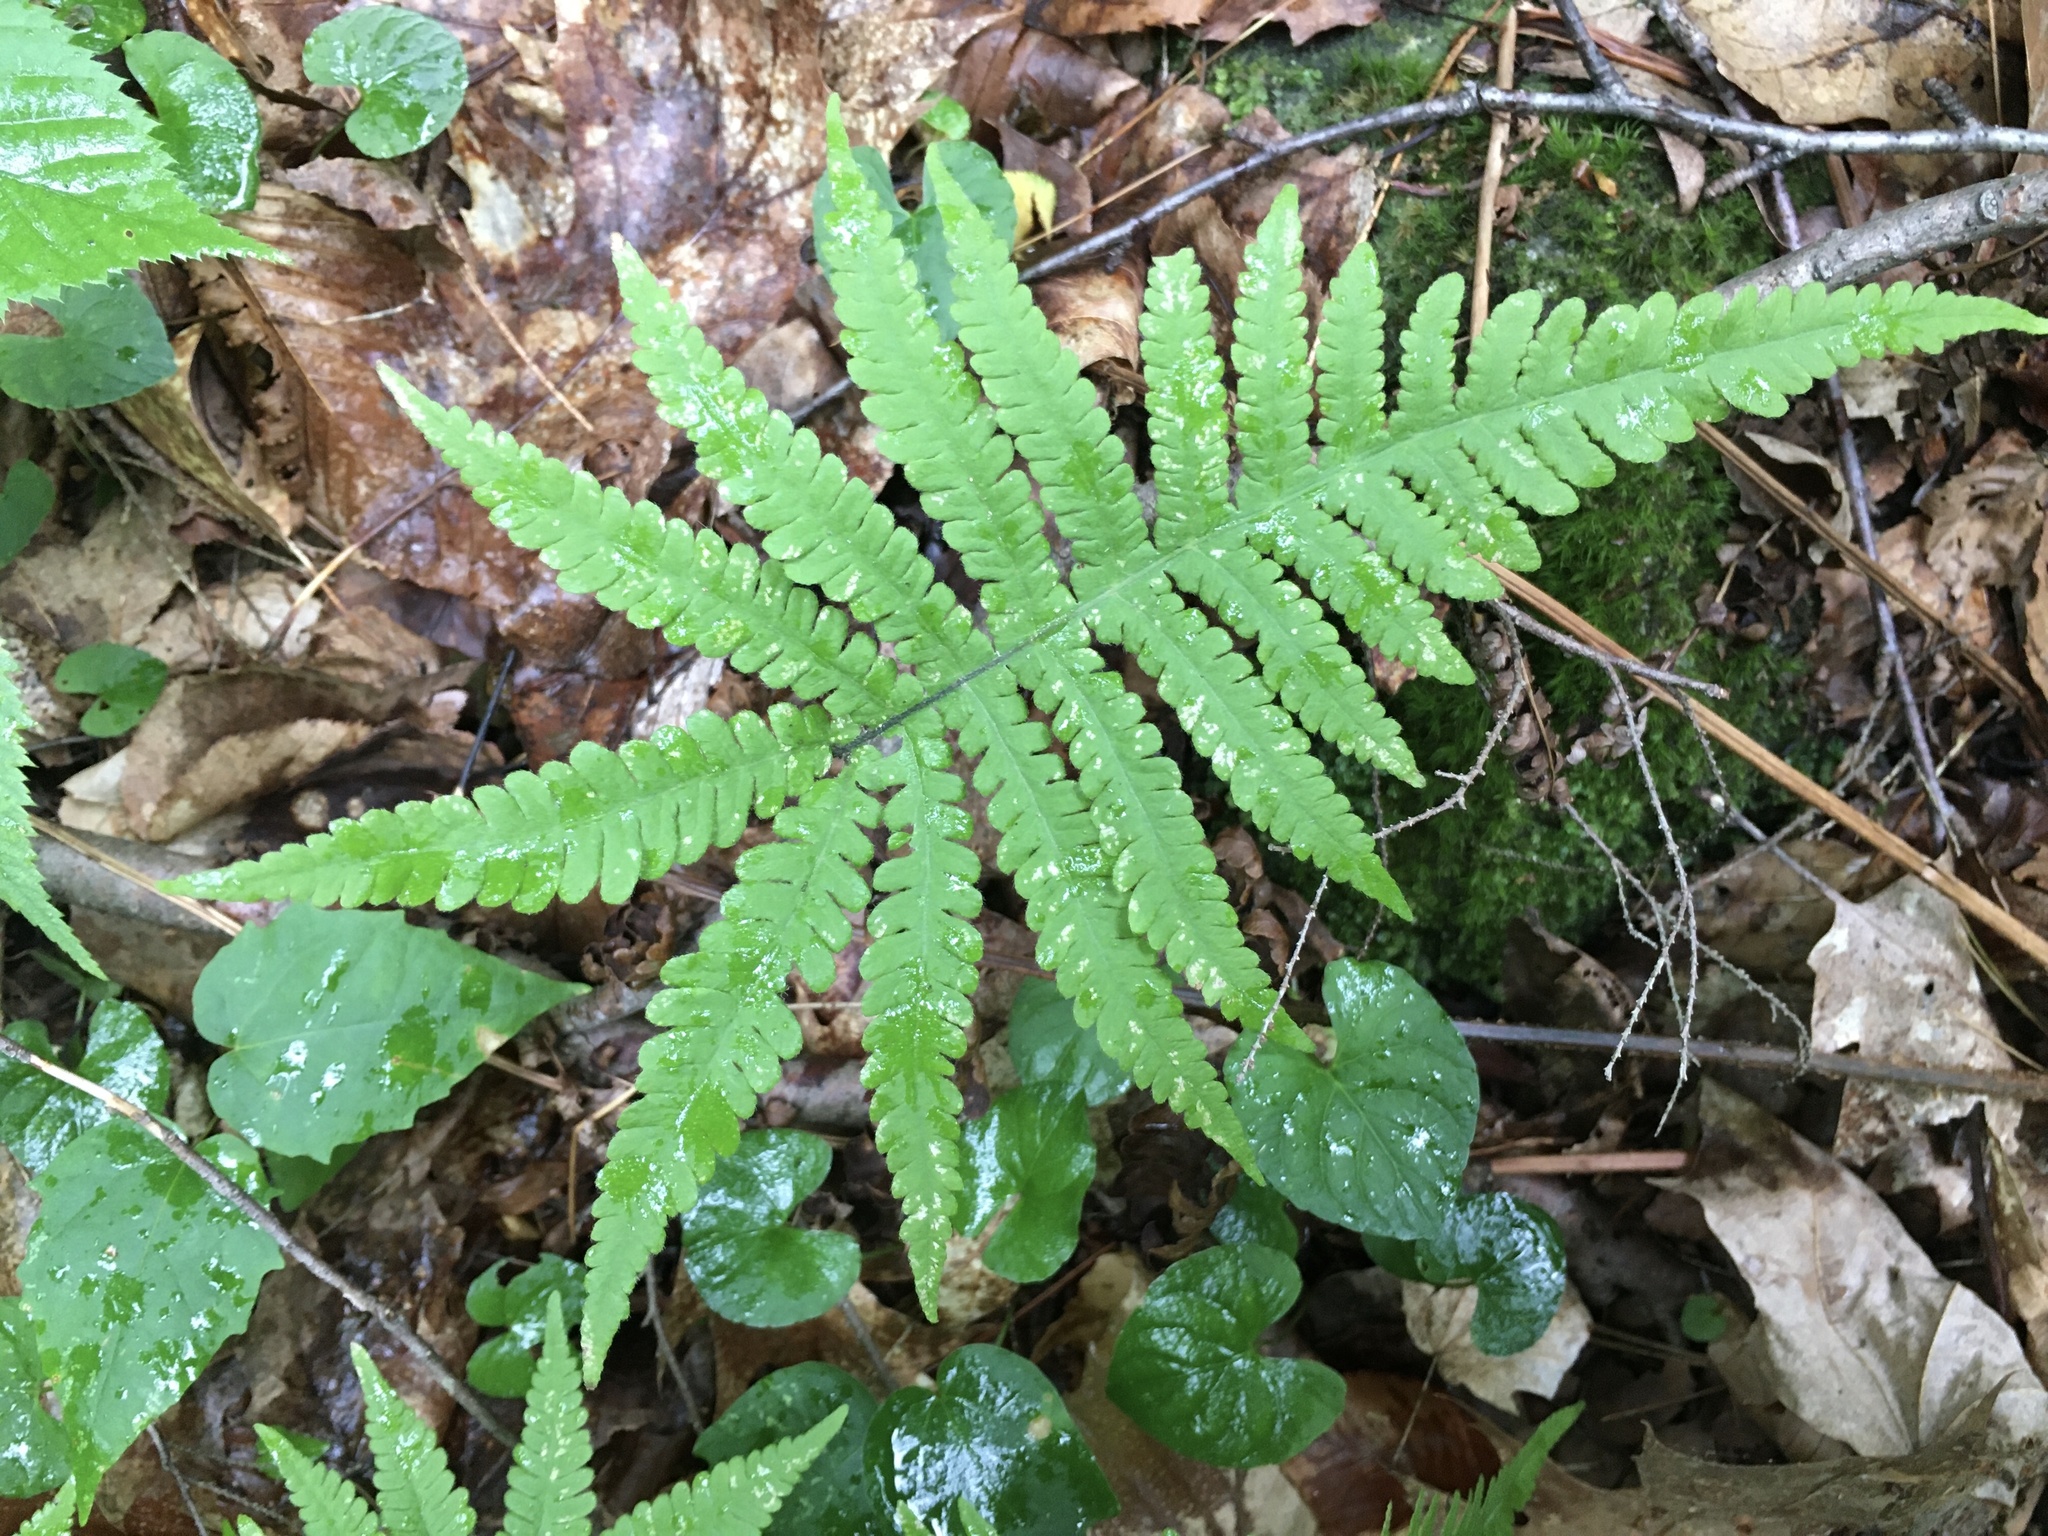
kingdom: Plantae
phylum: Tracheophyta
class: Polypodiopsida
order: Polypodiales
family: Thelypteridaceae
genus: Phegopteris
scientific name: Phegopteris connectilis
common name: Beech fern
